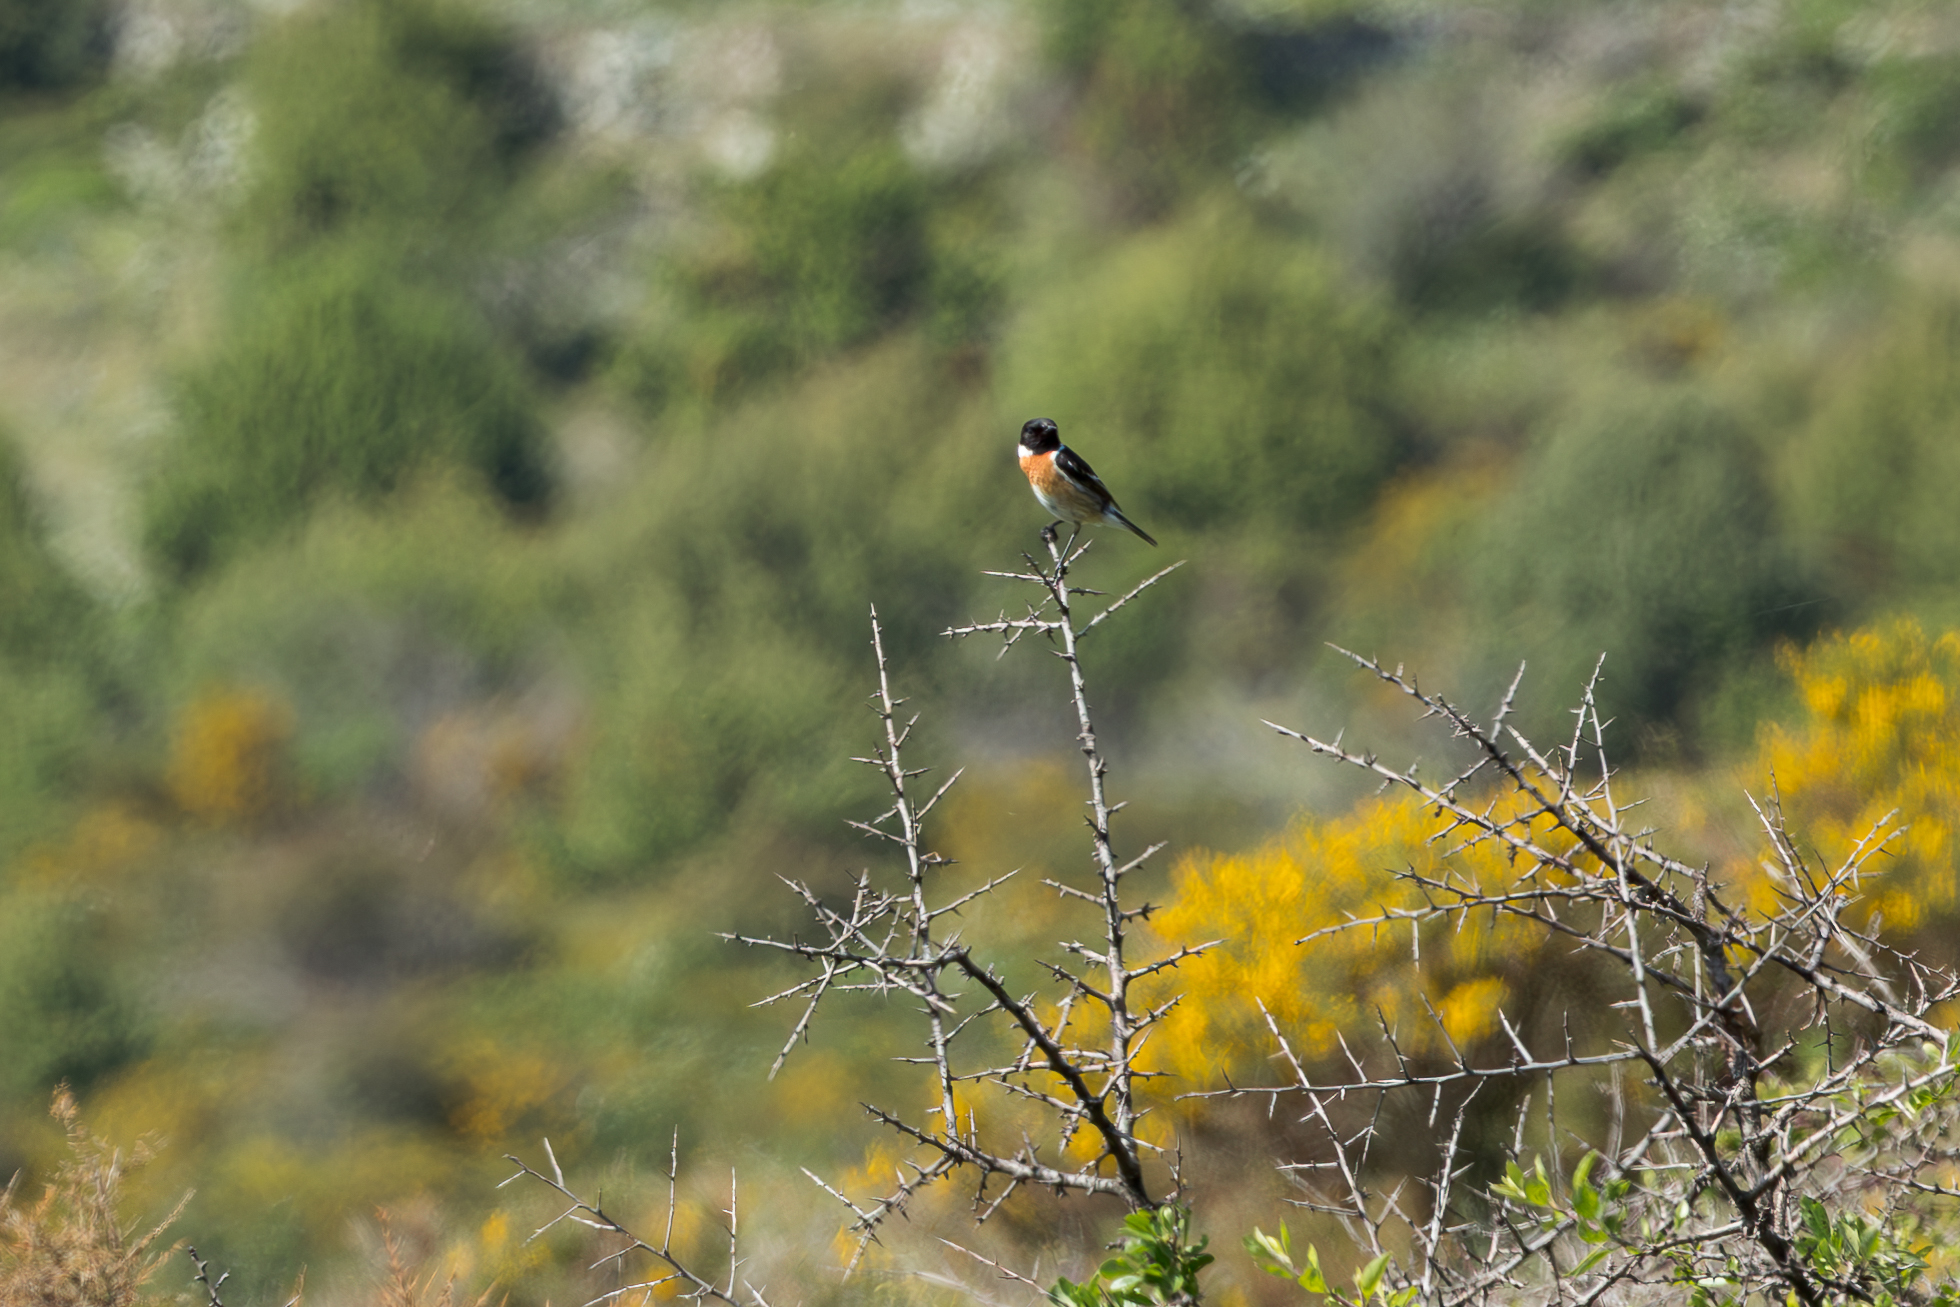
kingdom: Animalia
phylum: Chordata
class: Aves
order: Passeriformes
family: Muscicapidae
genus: Saxicola
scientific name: Saxicola rubicola
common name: European stonechat
